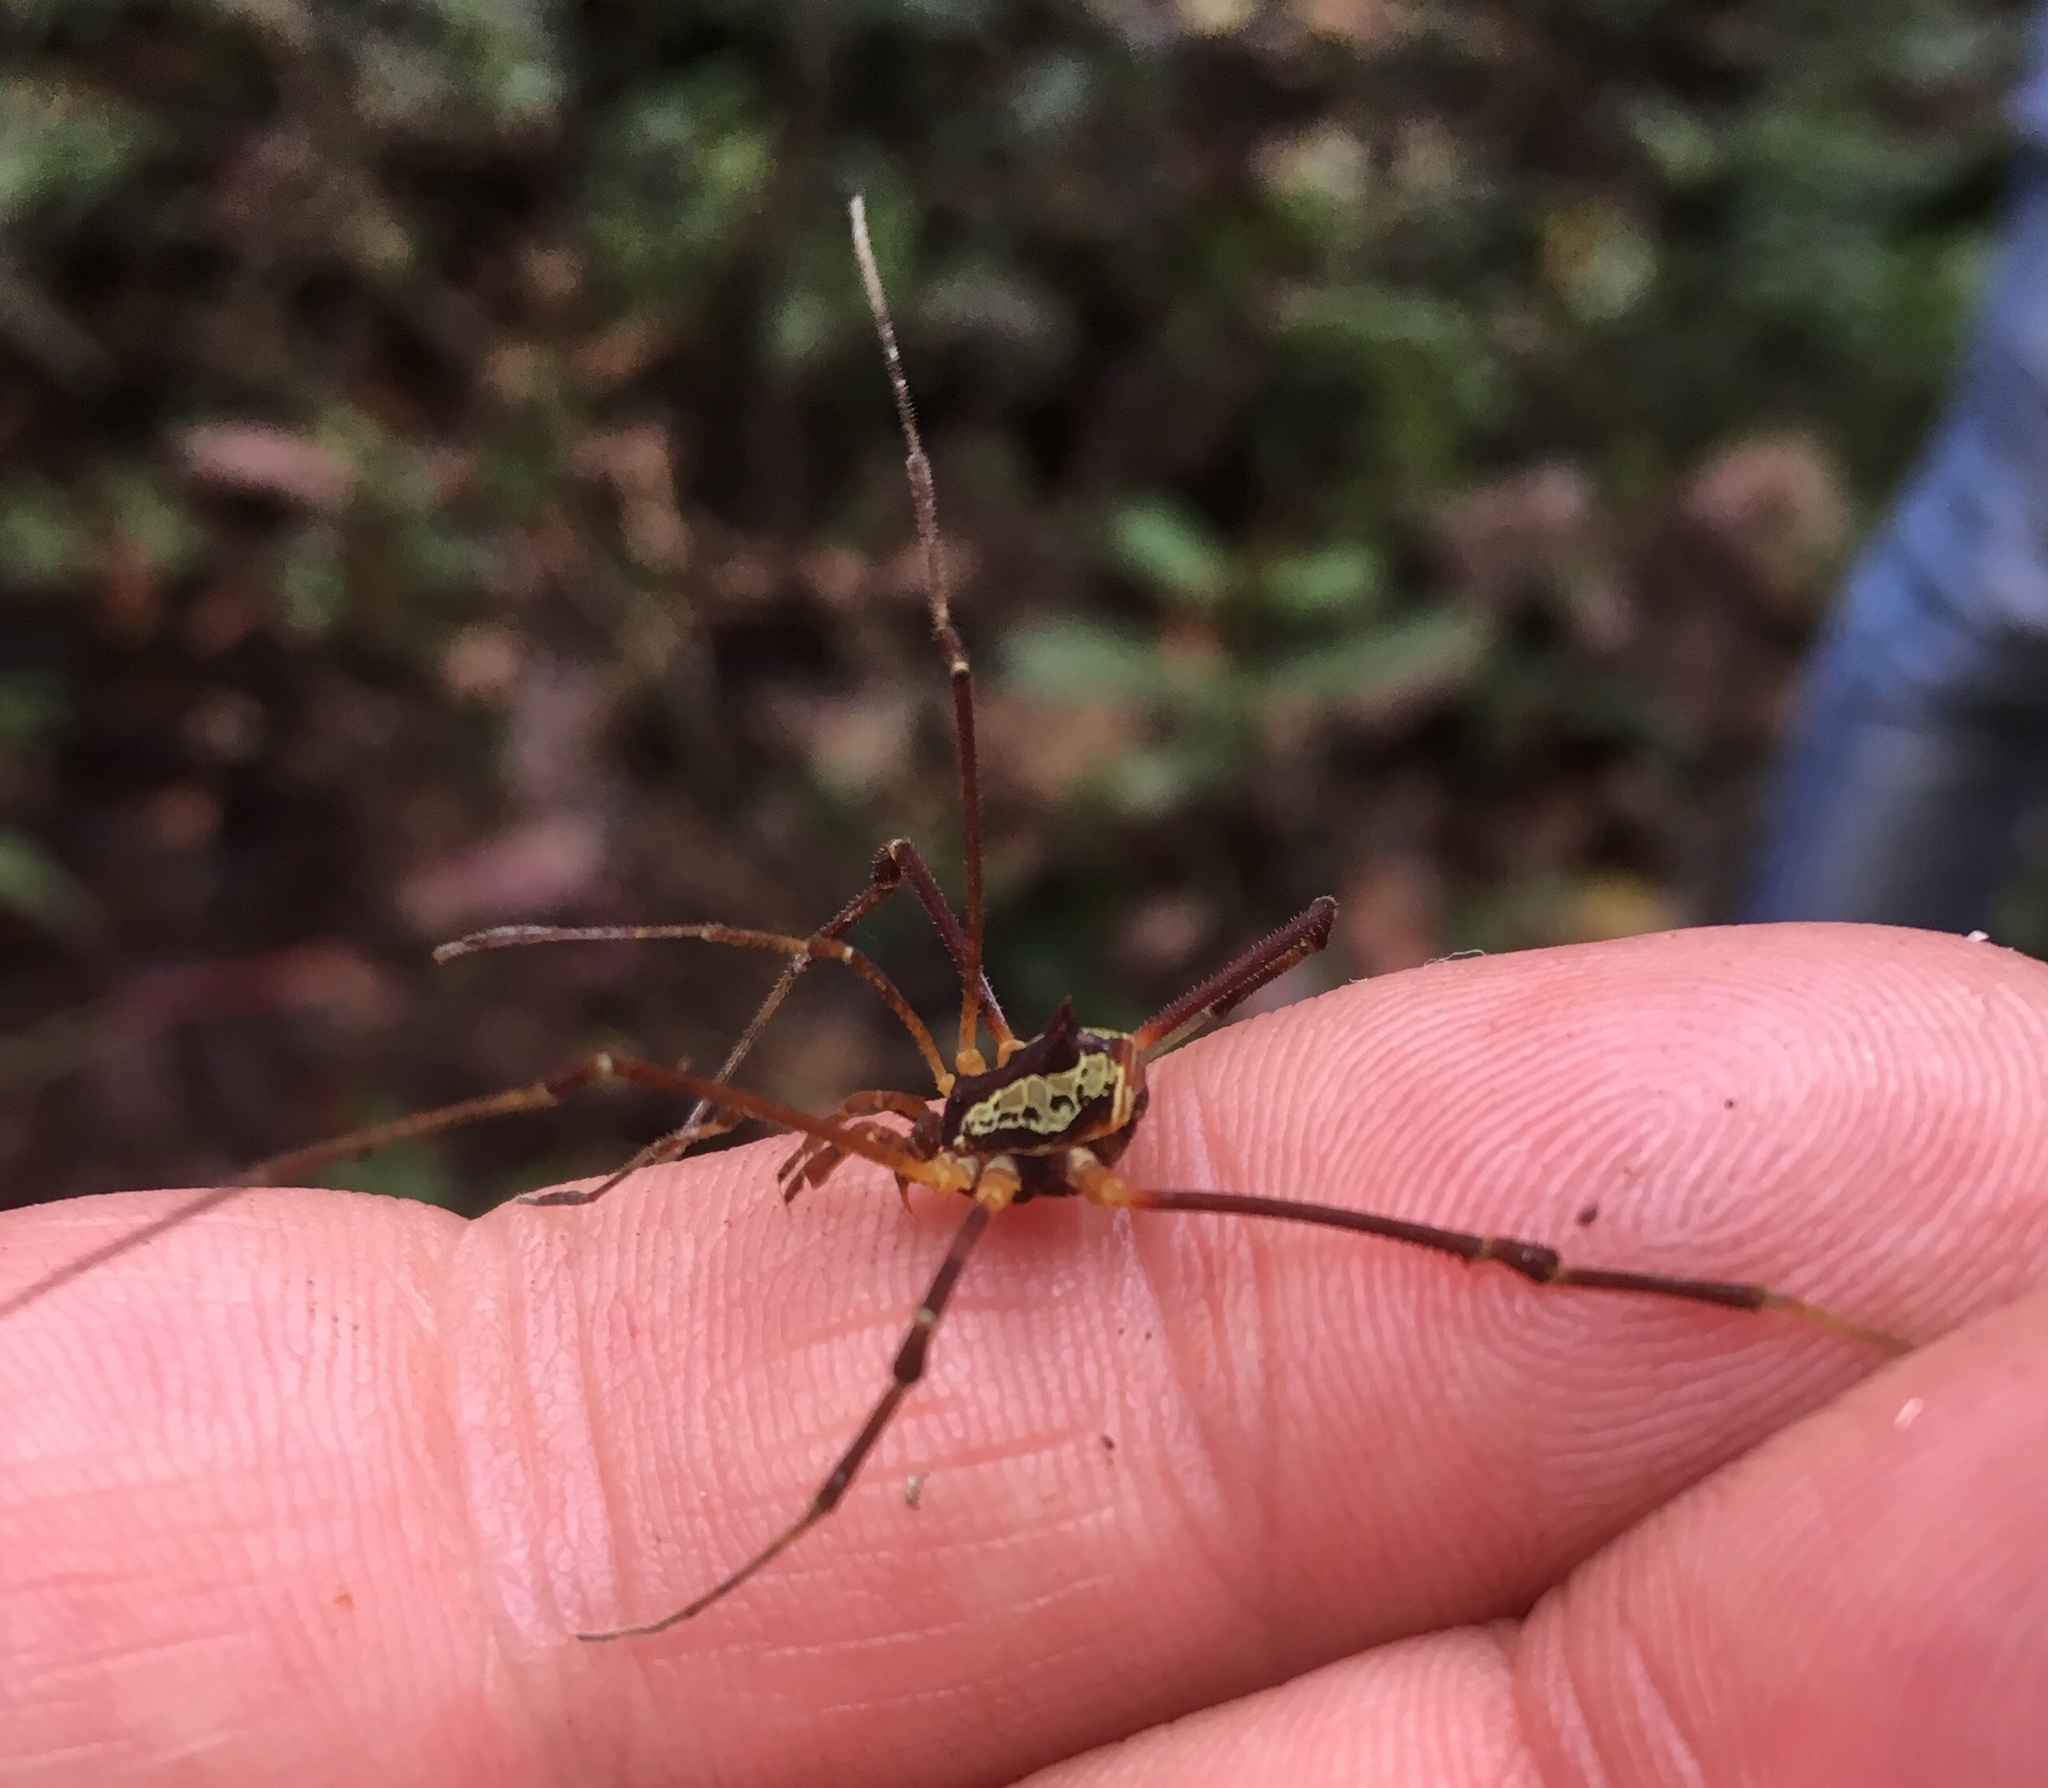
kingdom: Animalia
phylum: Arthropoda
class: Arachnida
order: Opiliones
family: Cosmetidae
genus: Meterginus
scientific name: Meterginus togatus
